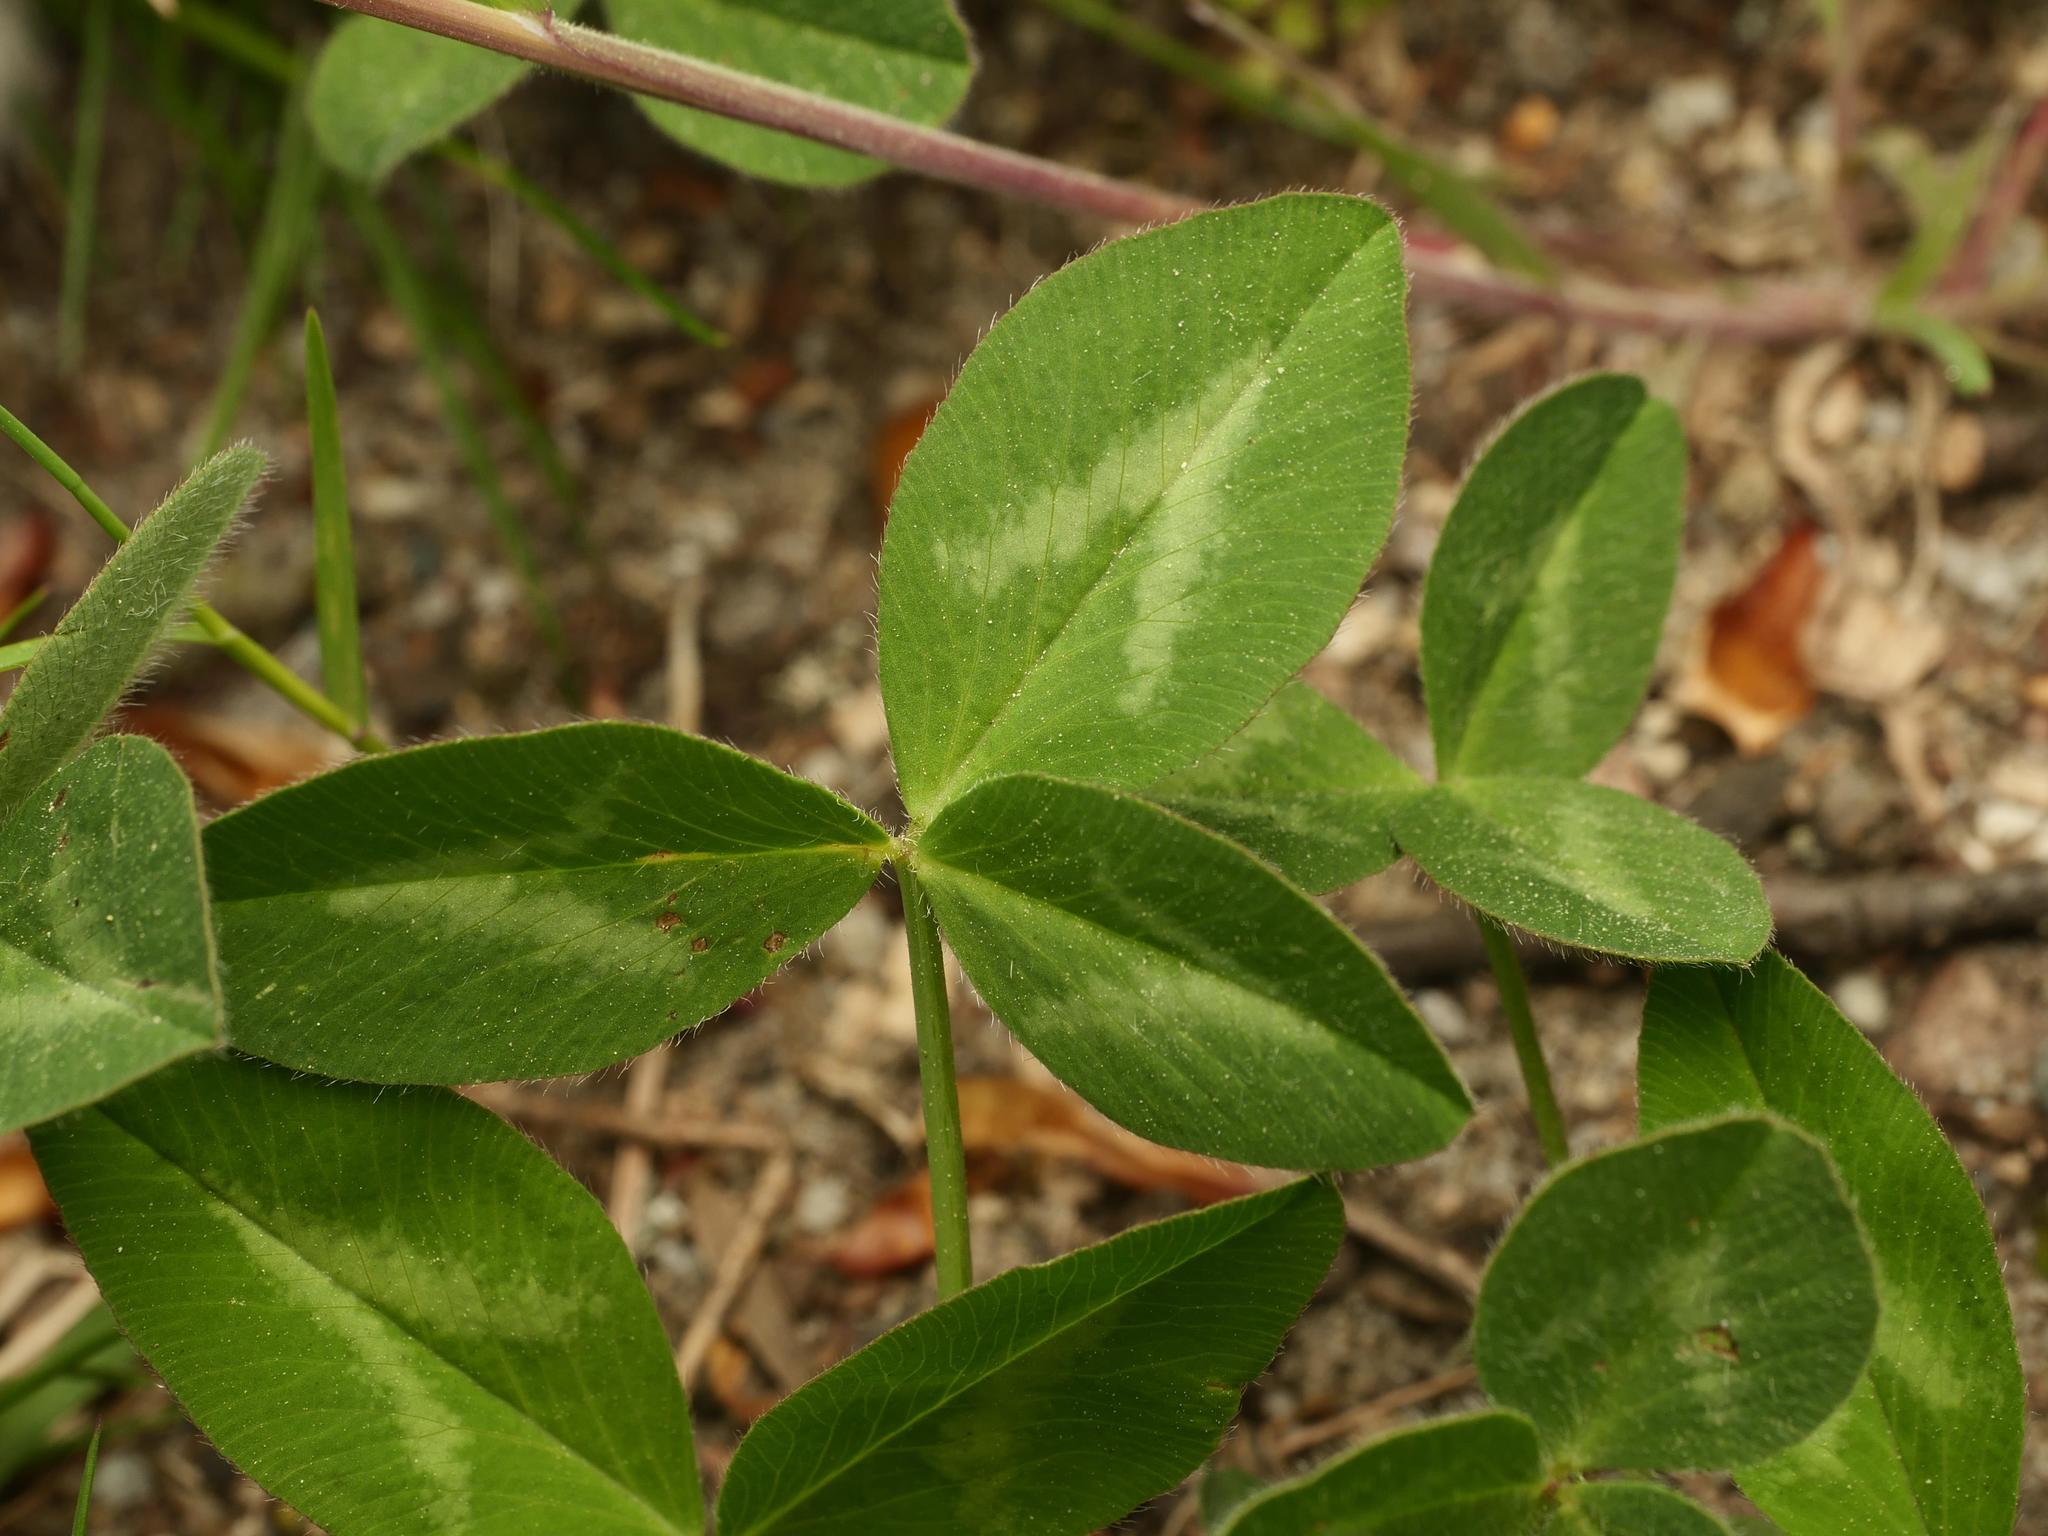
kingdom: Plantae
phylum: Tracheophyta
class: Magnoliopsida
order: Fabales
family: Fabaceae
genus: Trifolium
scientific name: Trifolium pratense
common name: Red clover
